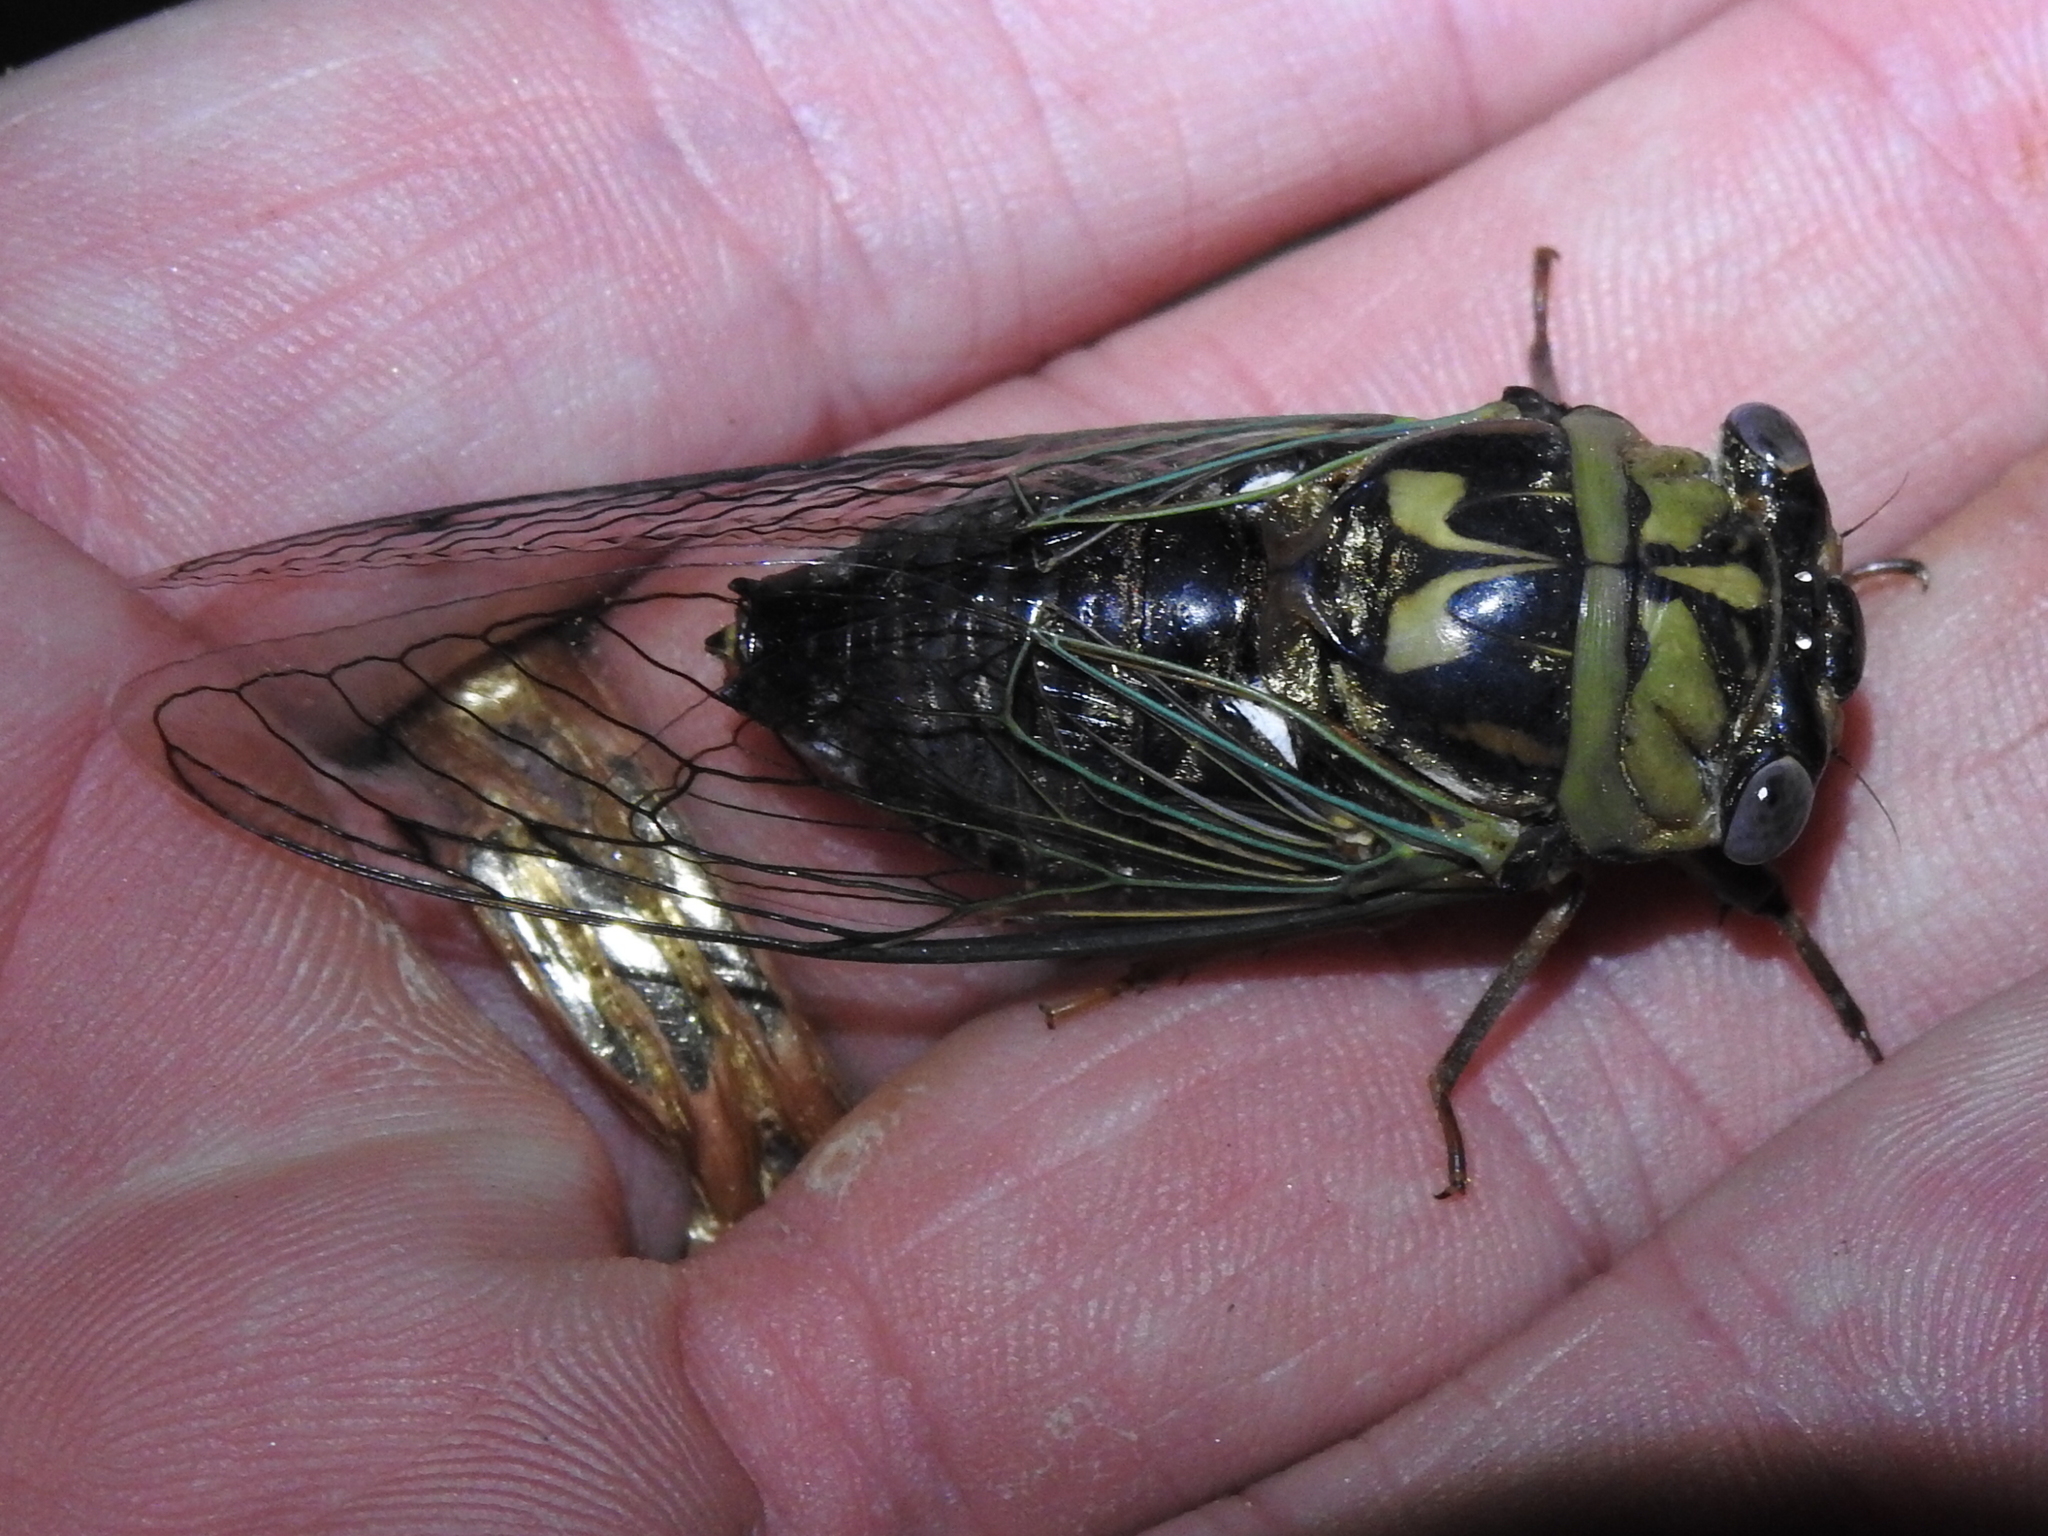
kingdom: Animalia
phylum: Arthropoda
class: Insecta
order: Hemiptera
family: Cicadidae
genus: Megatibicen
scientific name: Megatibicen resh
